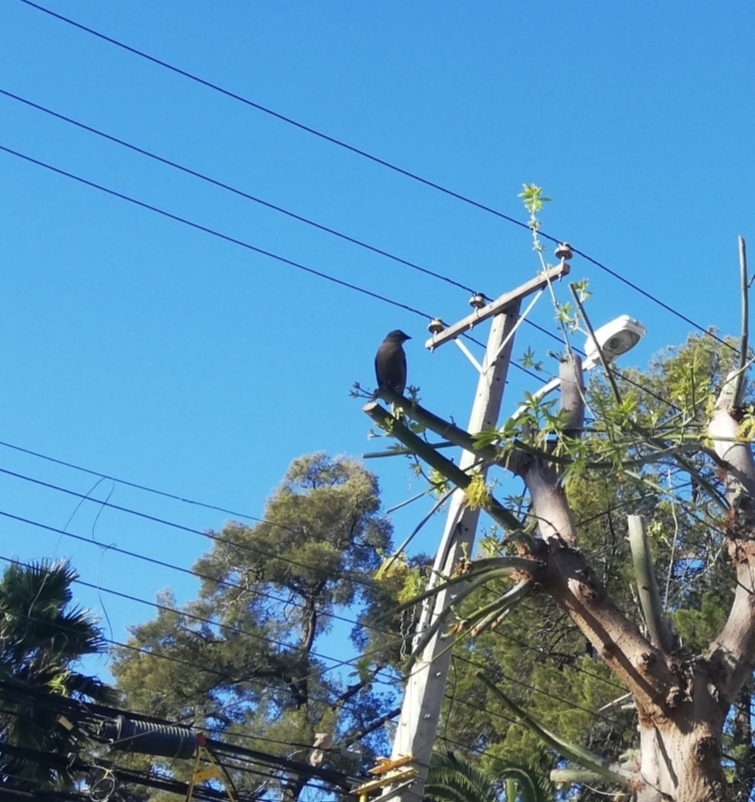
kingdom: Animalia
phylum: Chordata
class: Aves
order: Passeriformes
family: Icteridae
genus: Molothrus
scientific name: Molothrus bonariensis
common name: Shiny cowbird
